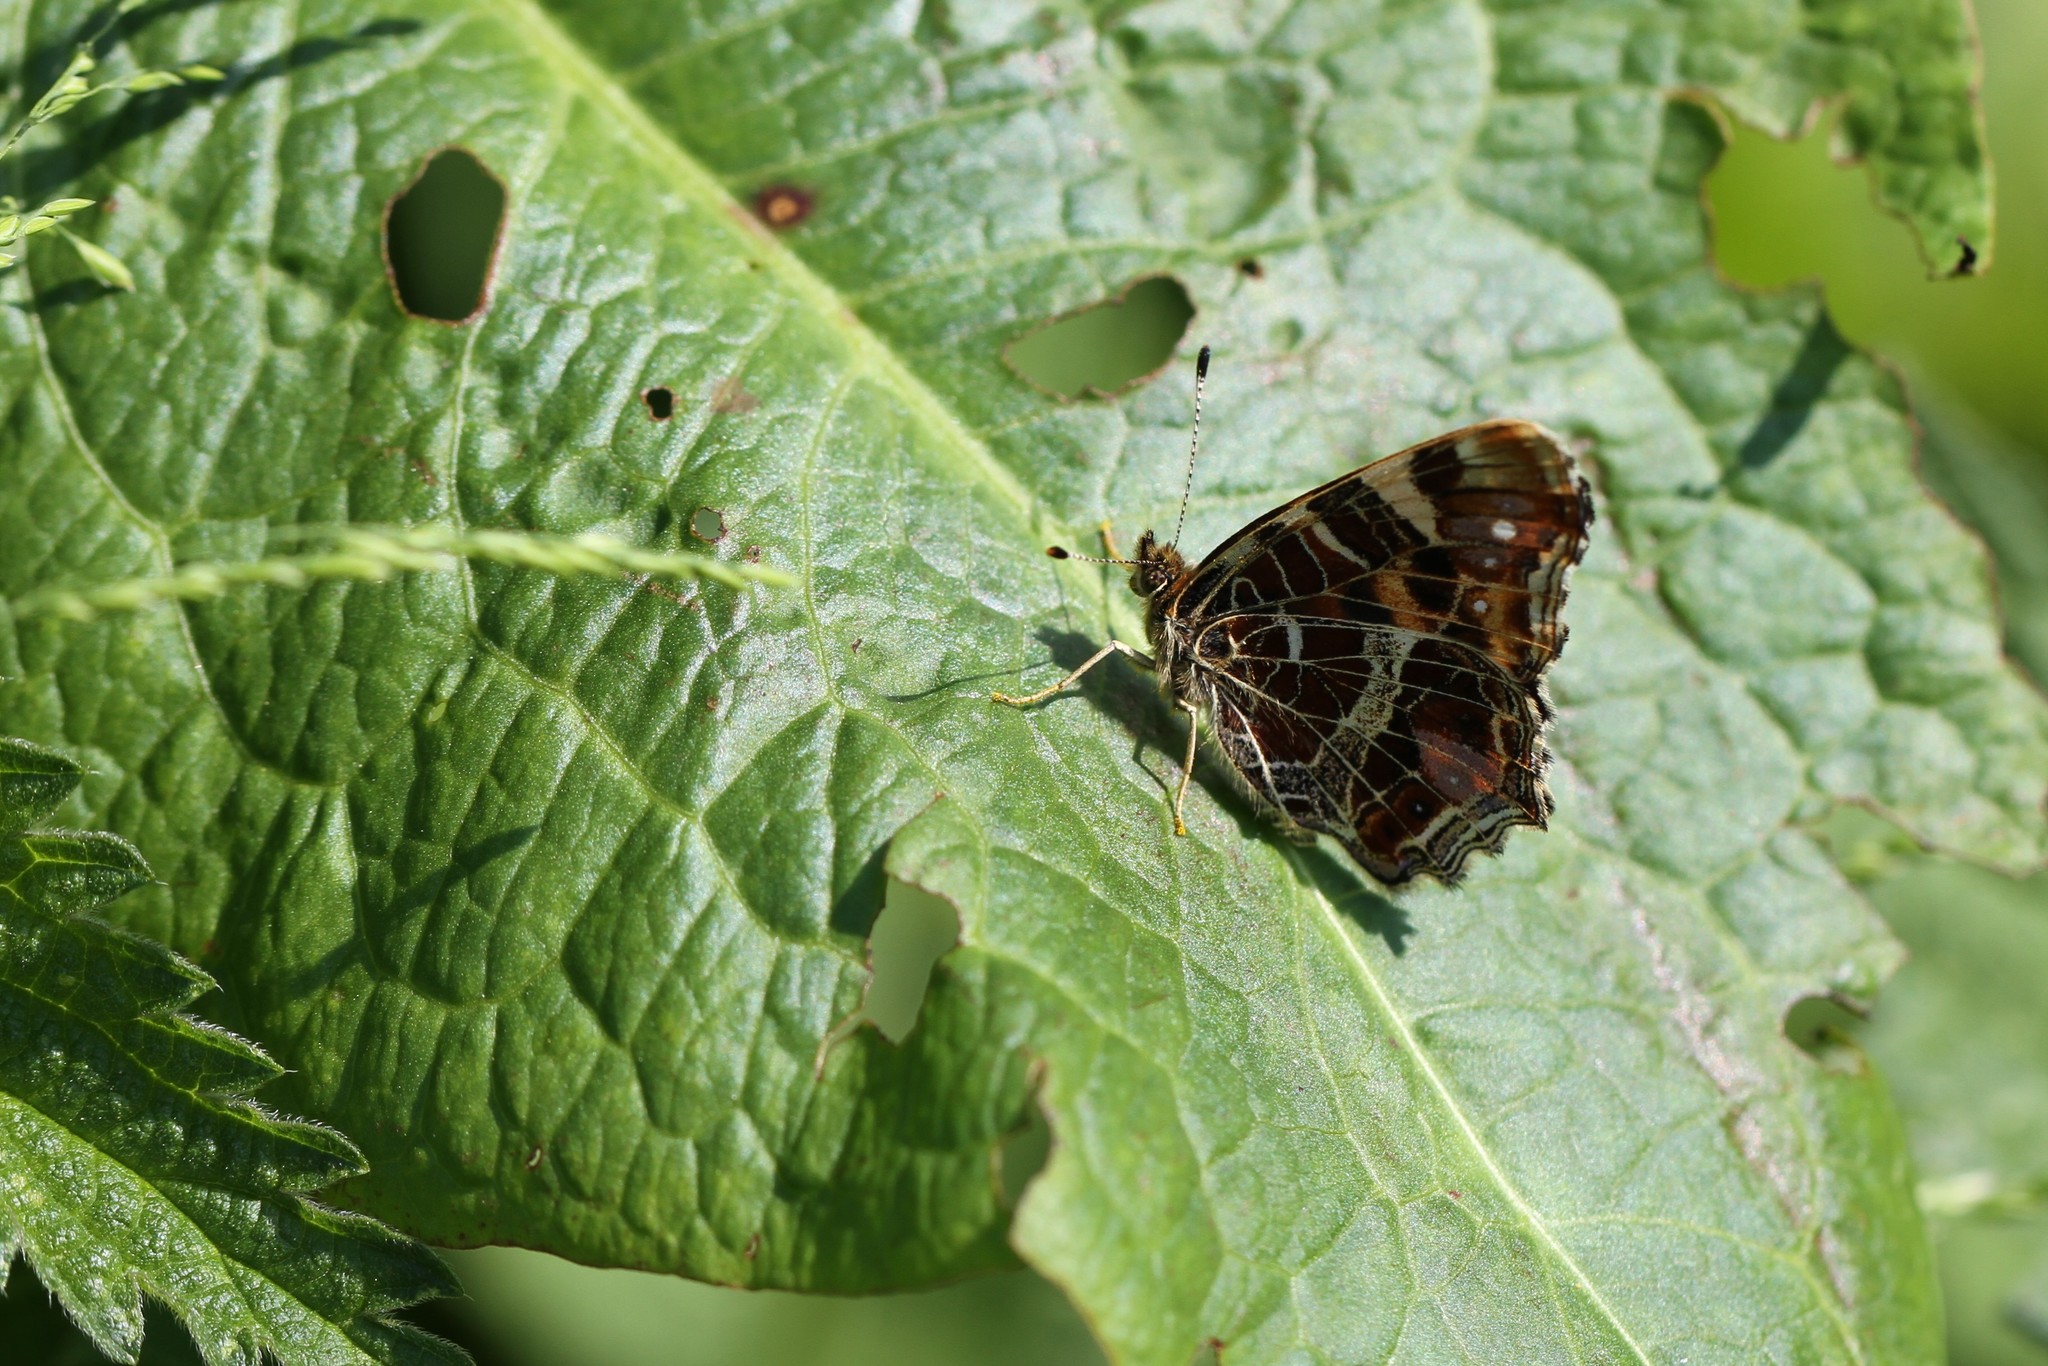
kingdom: Animalia
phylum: Arthropoda
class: Insecta
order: Lepidoptera
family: Nymphalidae
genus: Araschnia
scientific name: Araschnia levana
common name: Map butterfly
